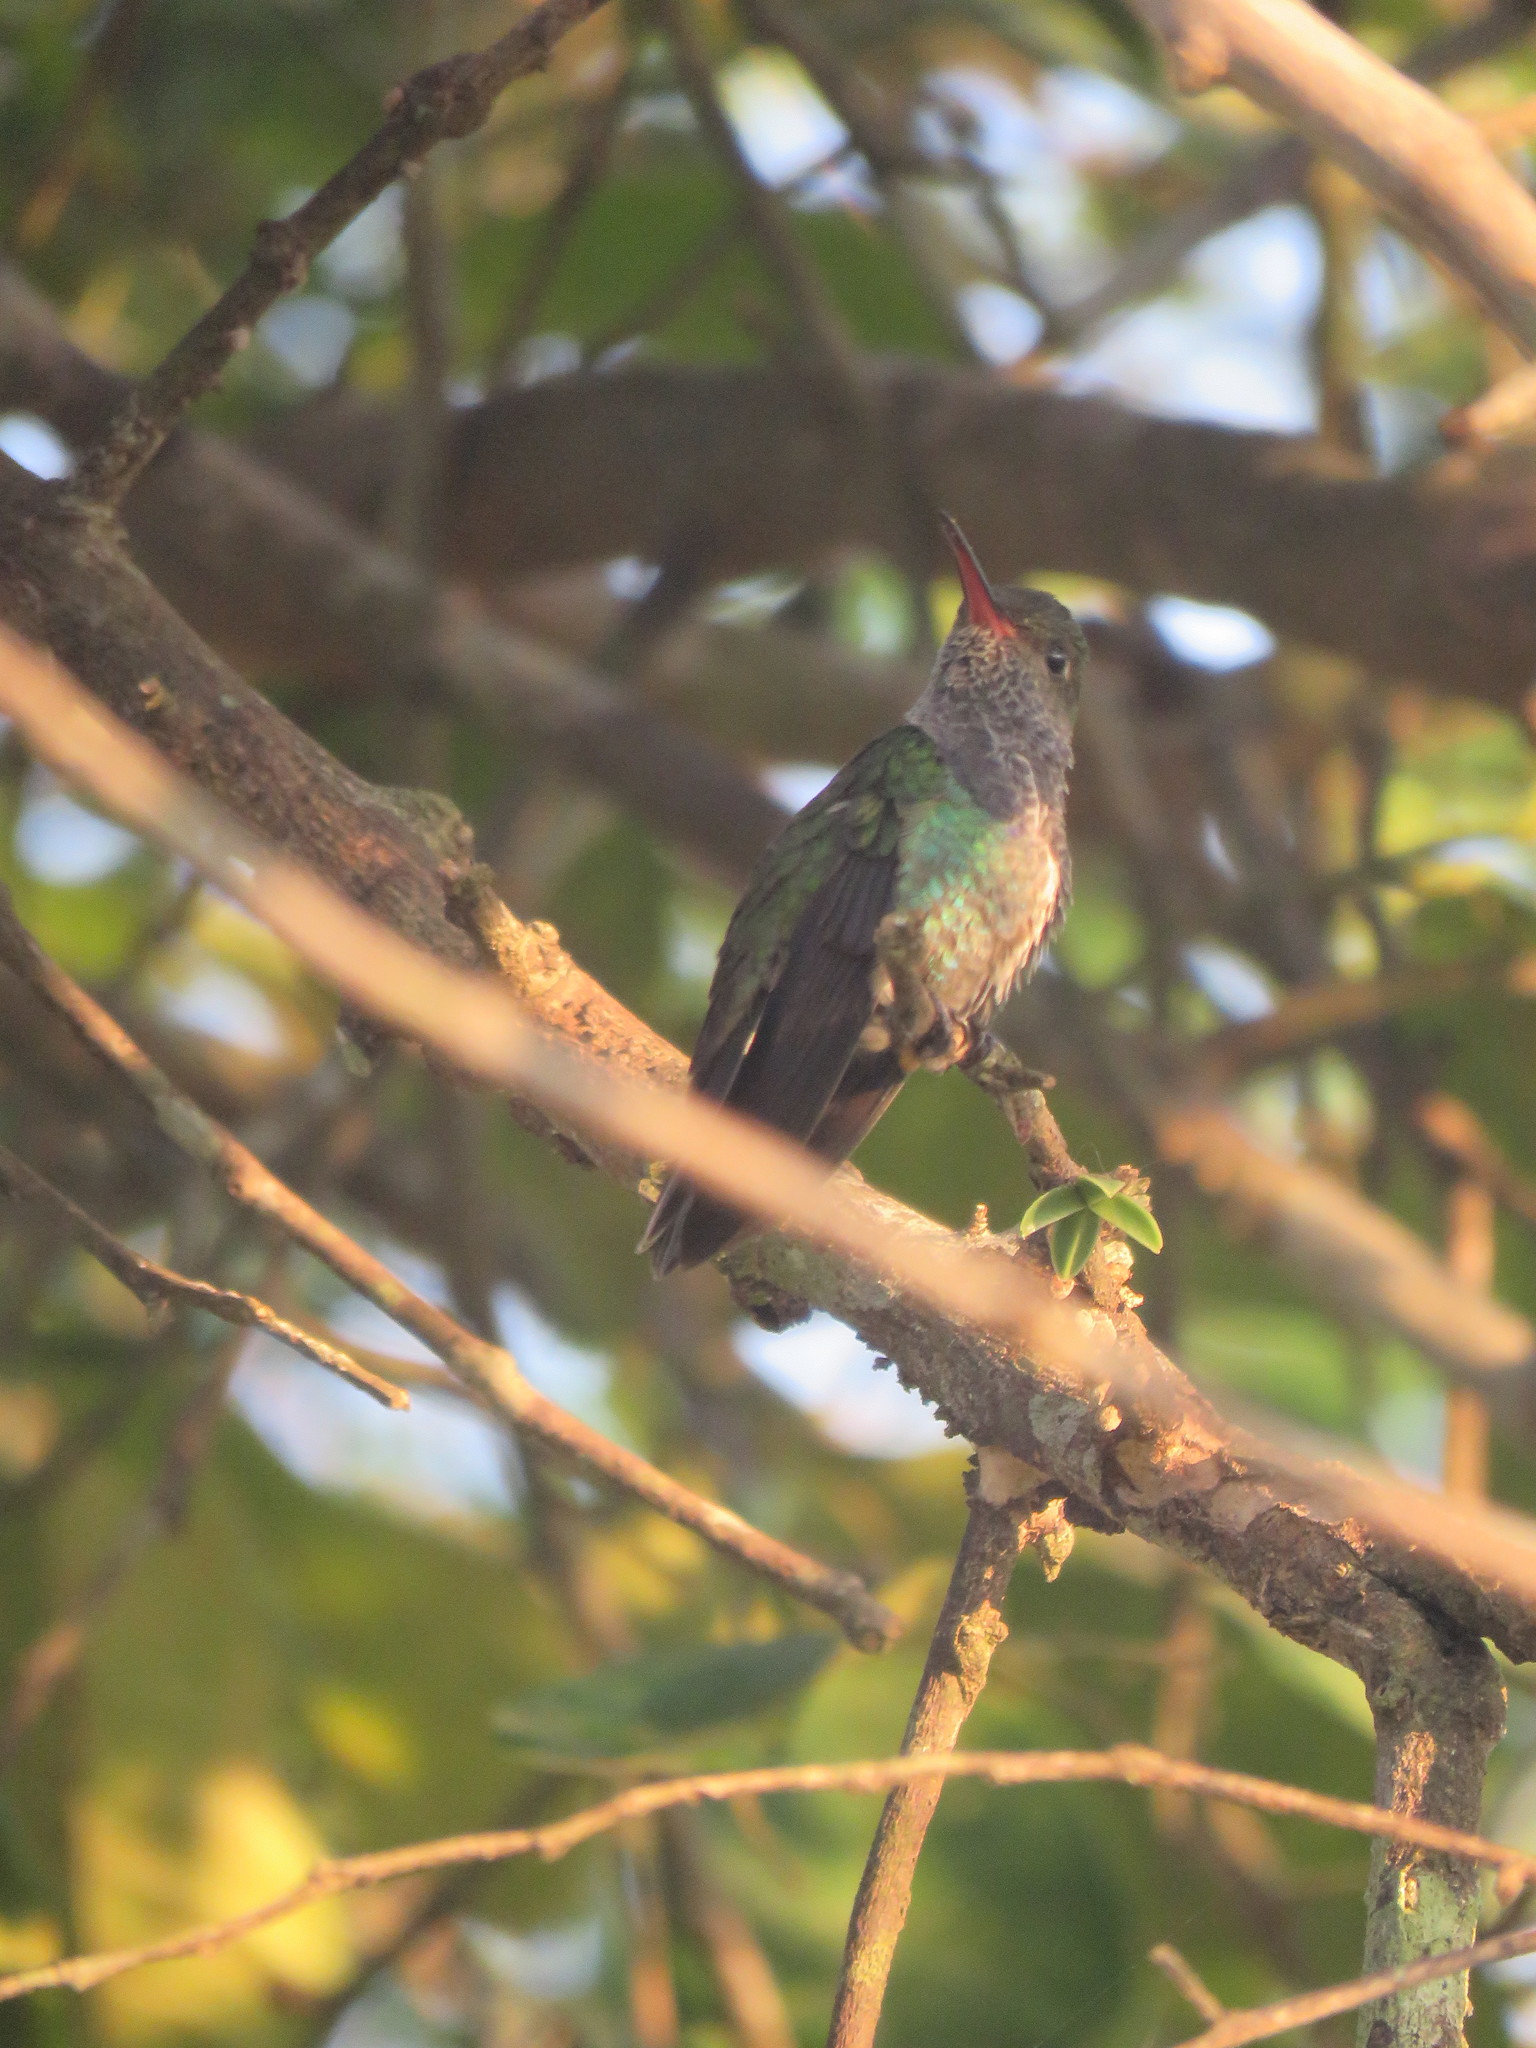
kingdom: Animalia
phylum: Chordata
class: Aves
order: Apodiformes
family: Trochilidae
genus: Chionomesa
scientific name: Chionomesa lactea
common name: Sapphire-spangled emerald
